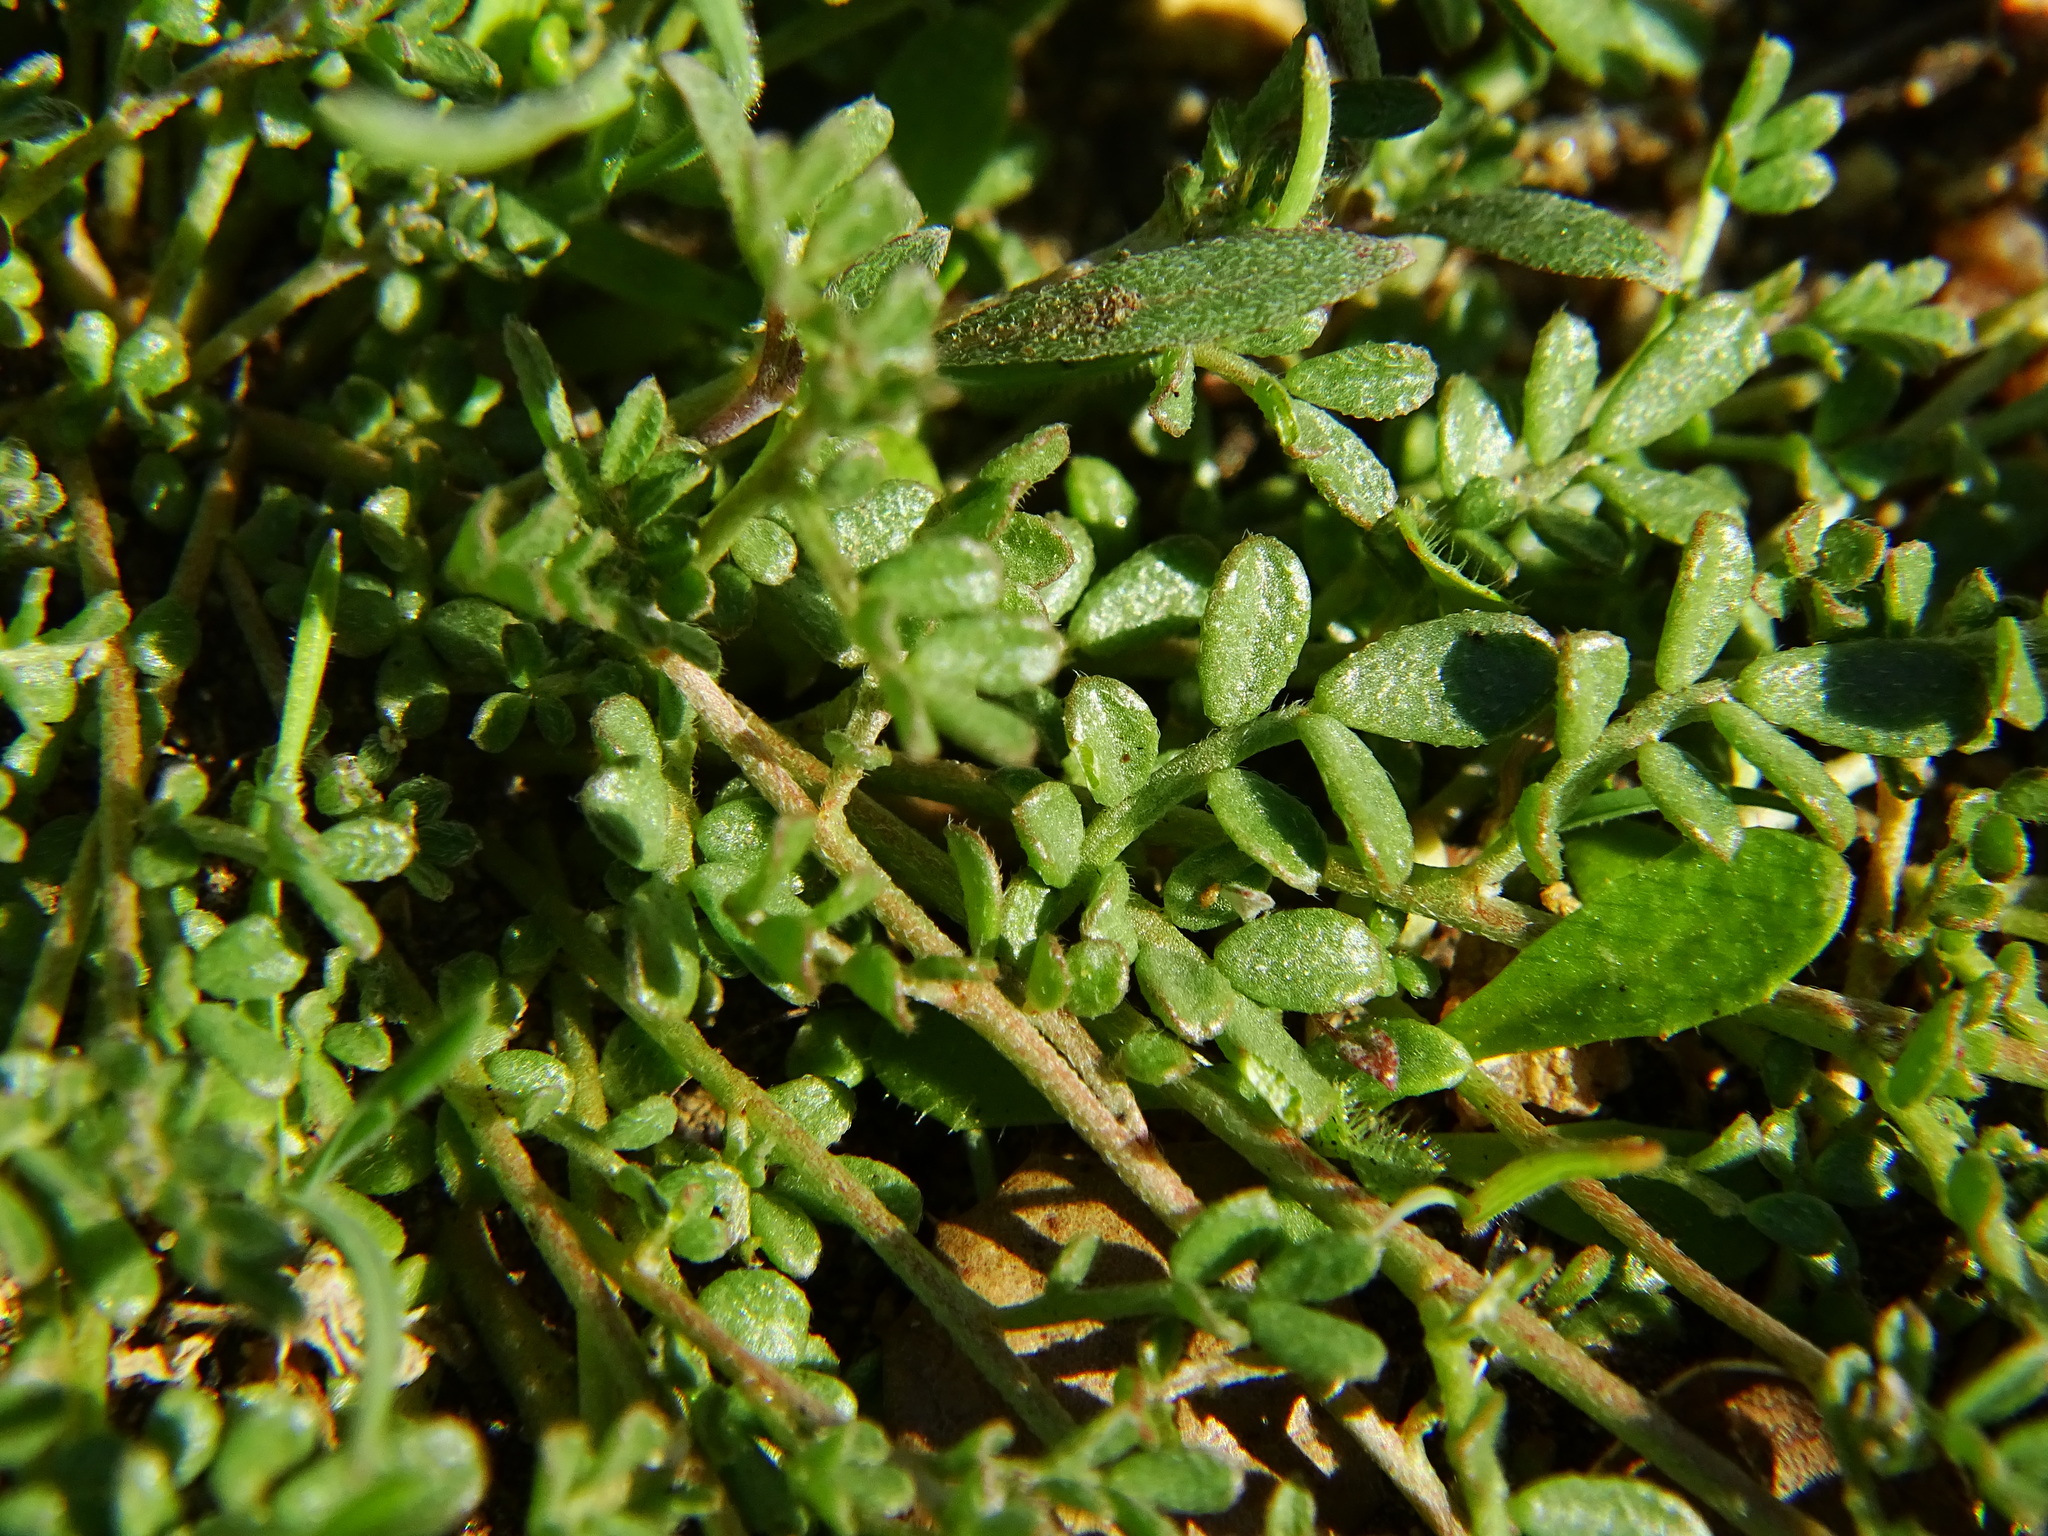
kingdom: Plantae
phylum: Tracheophyta
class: Magnoliopsida
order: Fabales
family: Fabaceae
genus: Acmispon
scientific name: Acmispon strigosus
